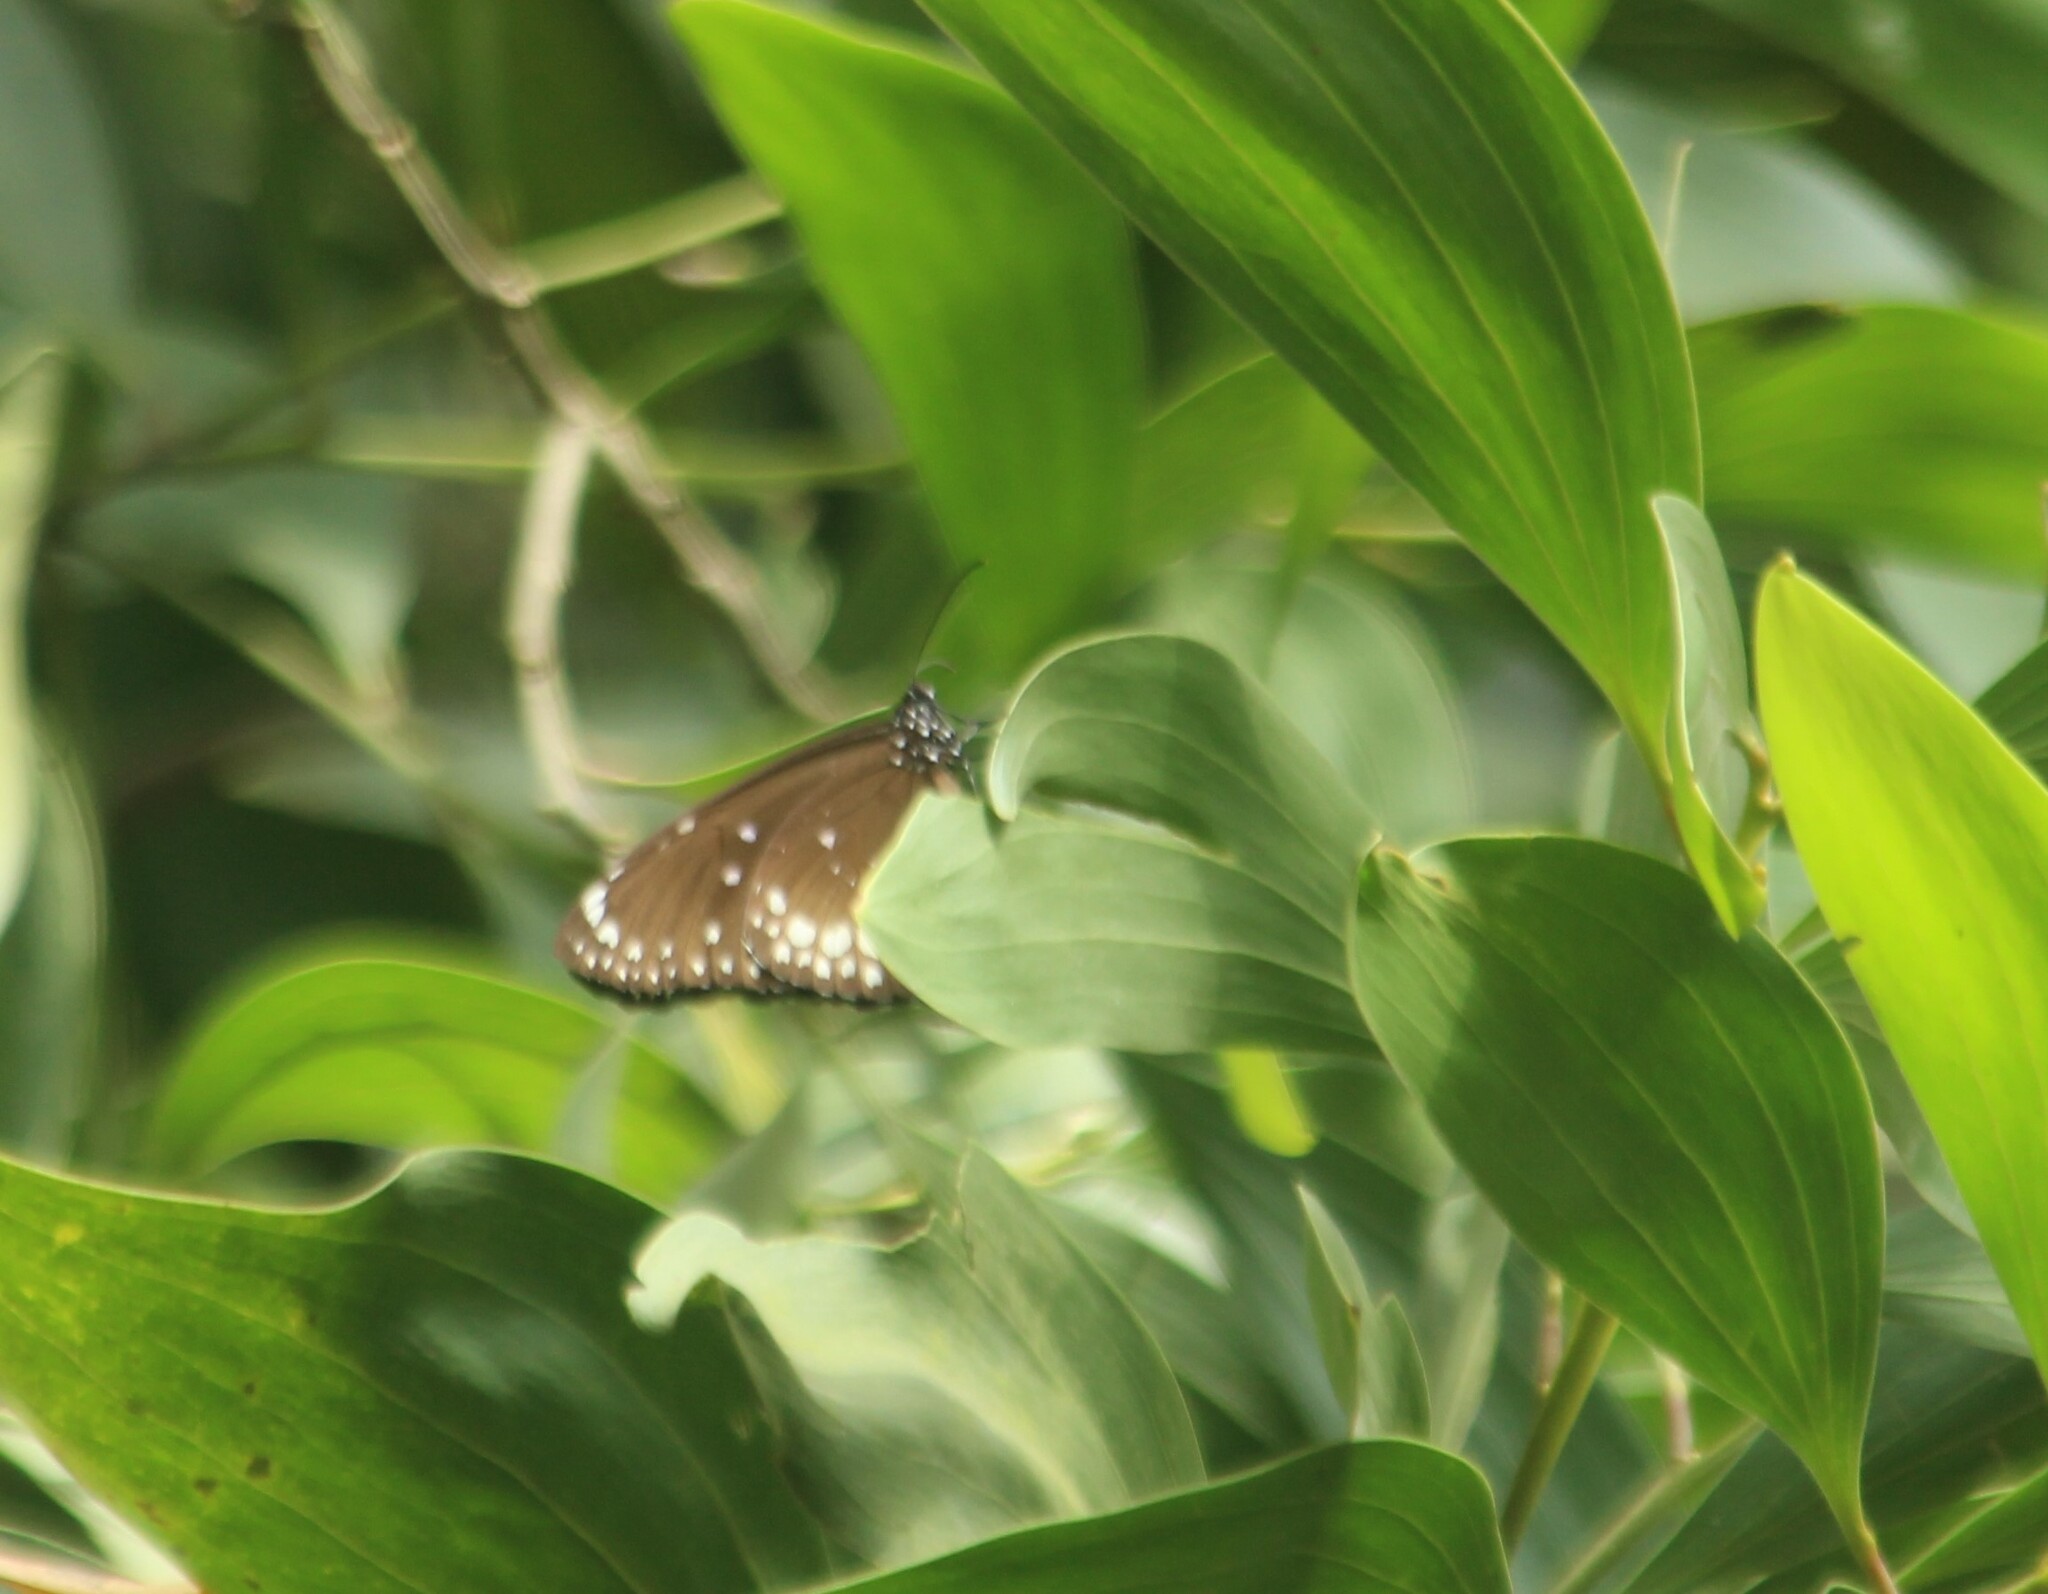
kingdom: Animalia
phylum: Arthropoda
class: Insecta
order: Lepidoptera
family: Nymphalidae
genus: Euploea
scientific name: Euploea core
